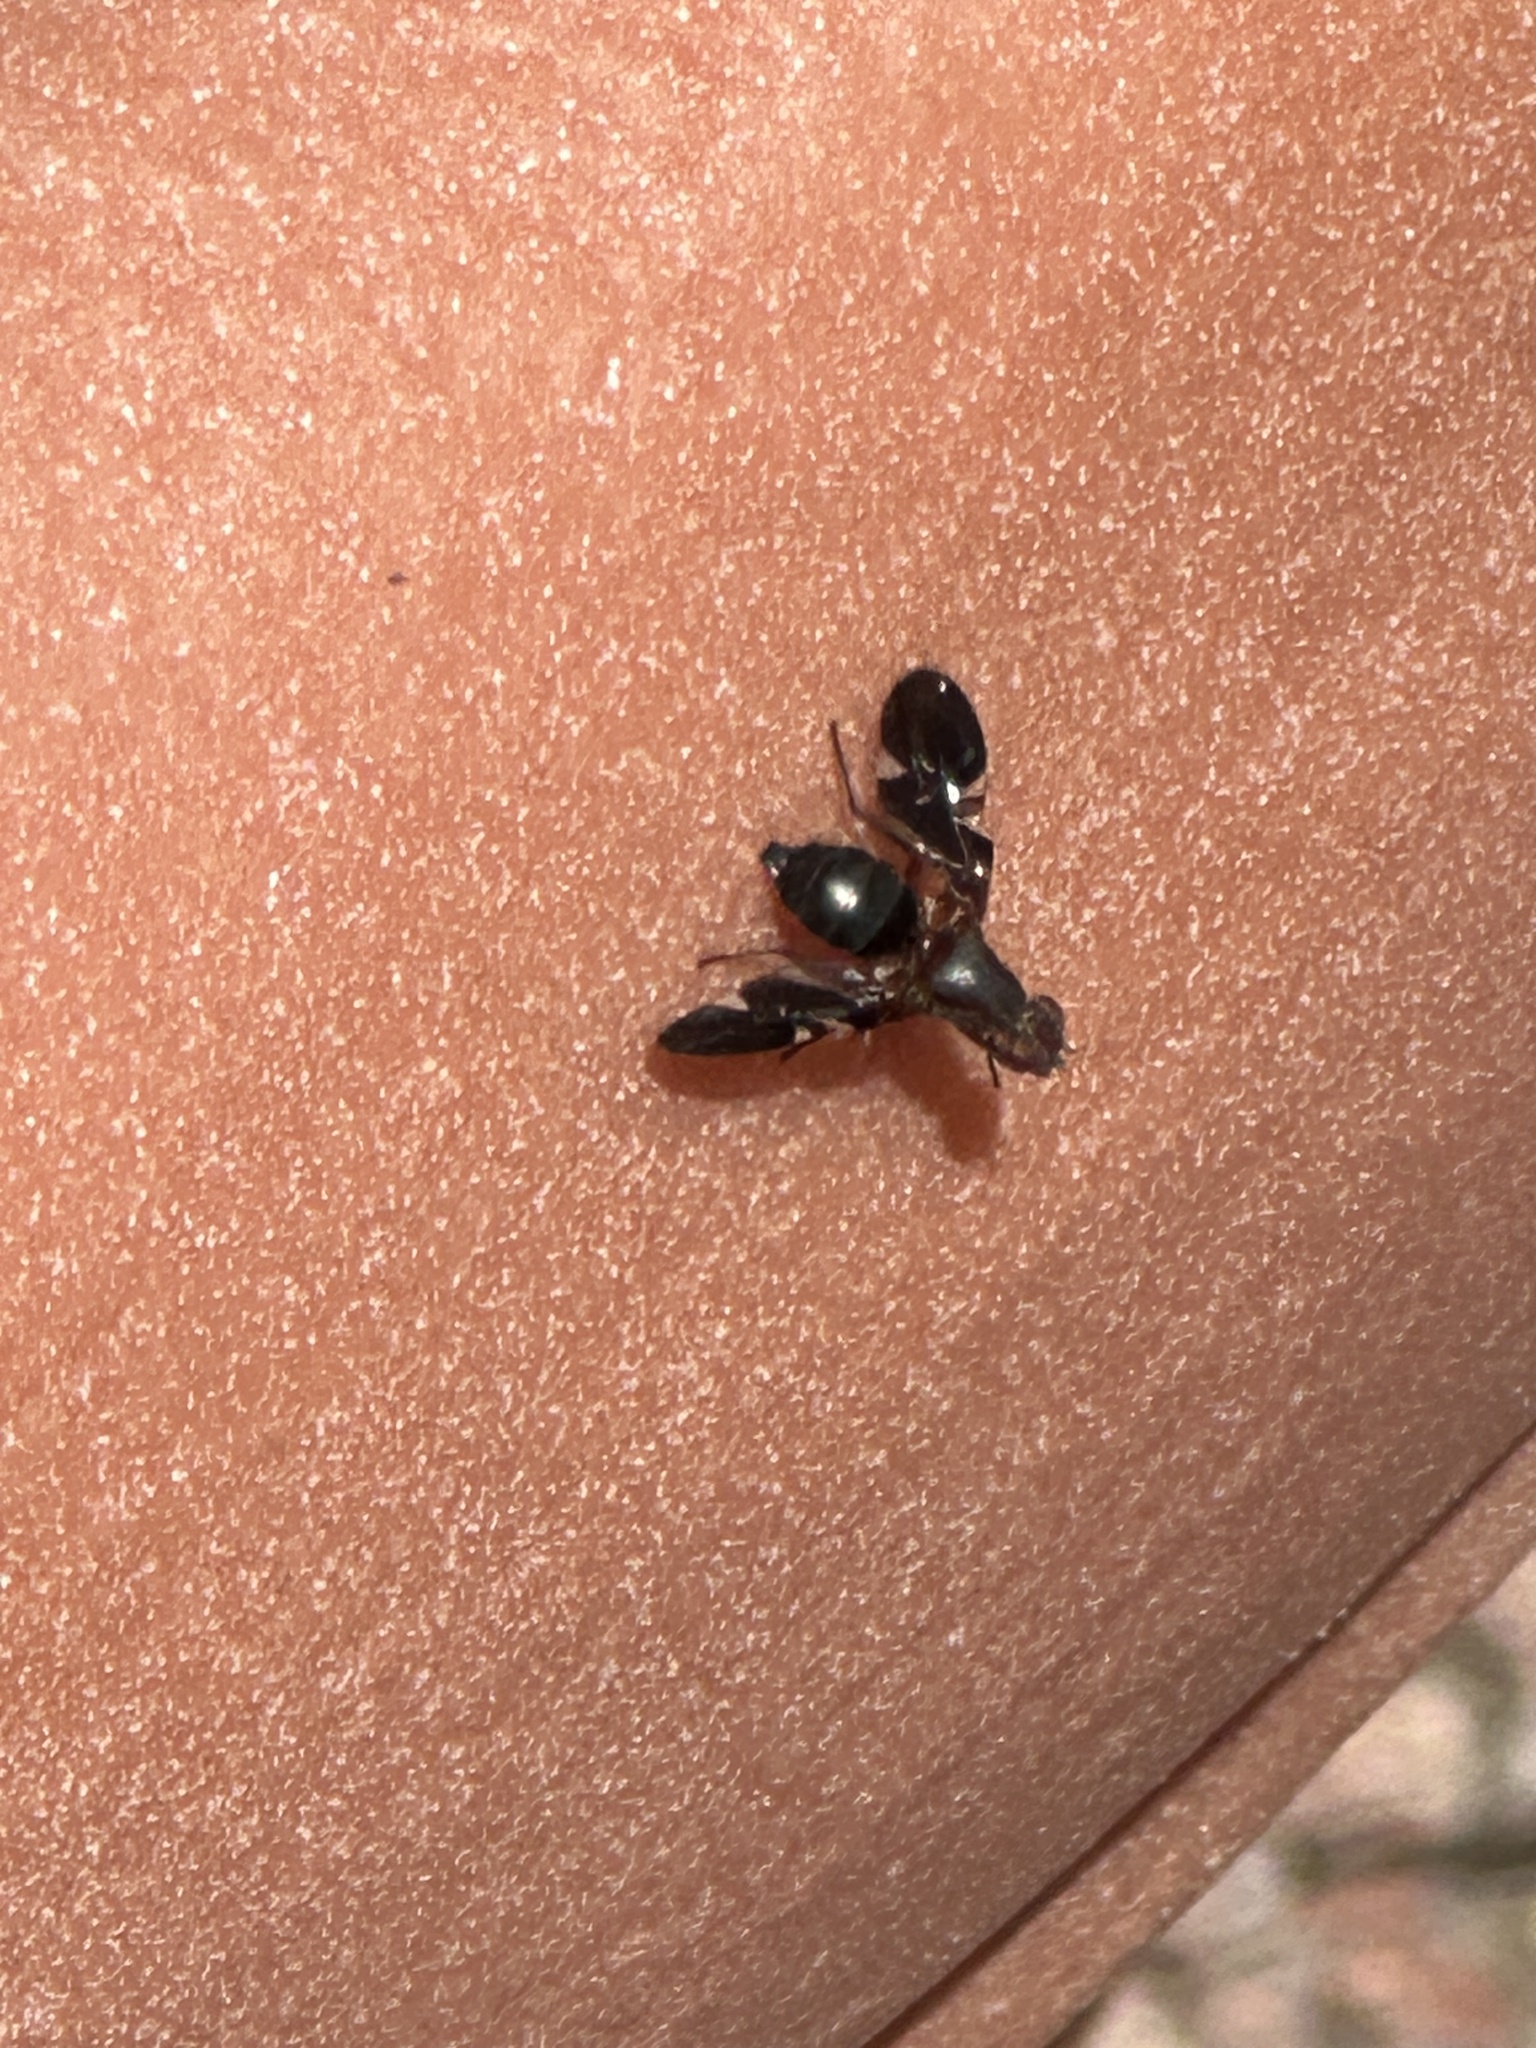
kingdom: Animalia
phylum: Arthropoda
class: Insecta
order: Diptera
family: Ulidiidae
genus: Delphinia
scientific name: Delphinia picta
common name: Common picture-winged fly
